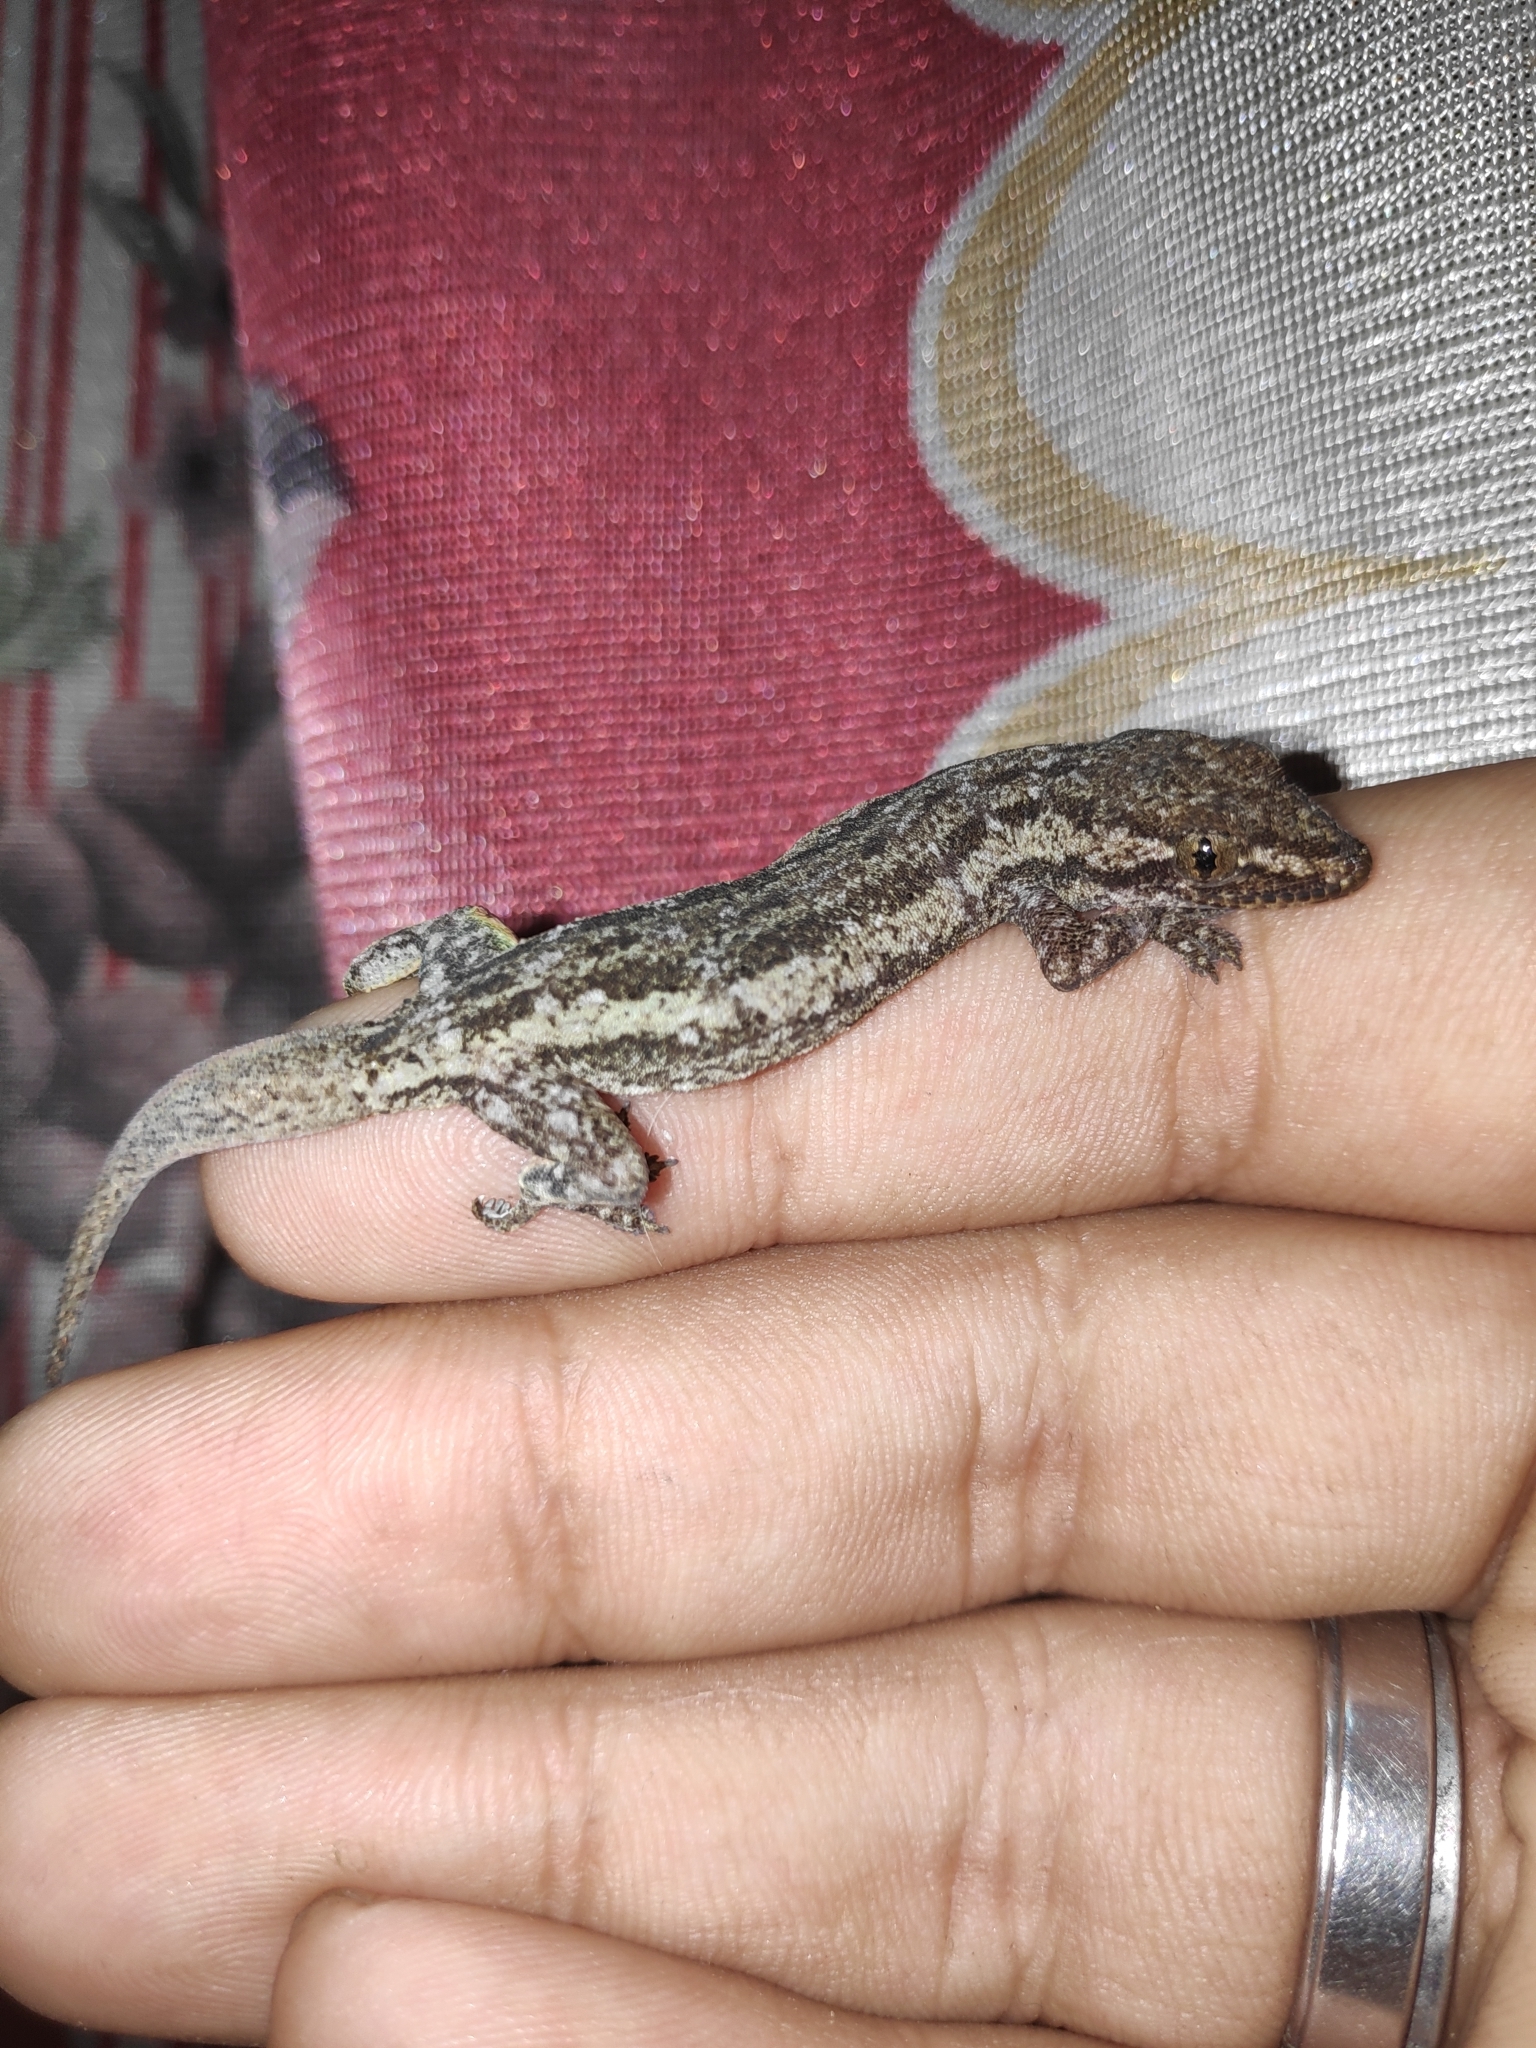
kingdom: Animalia
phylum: Chordata
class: Squamata
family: Gekkonidae
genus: Hemidactylus
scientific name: Hemidactylus frenatus
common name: Common house gecko
